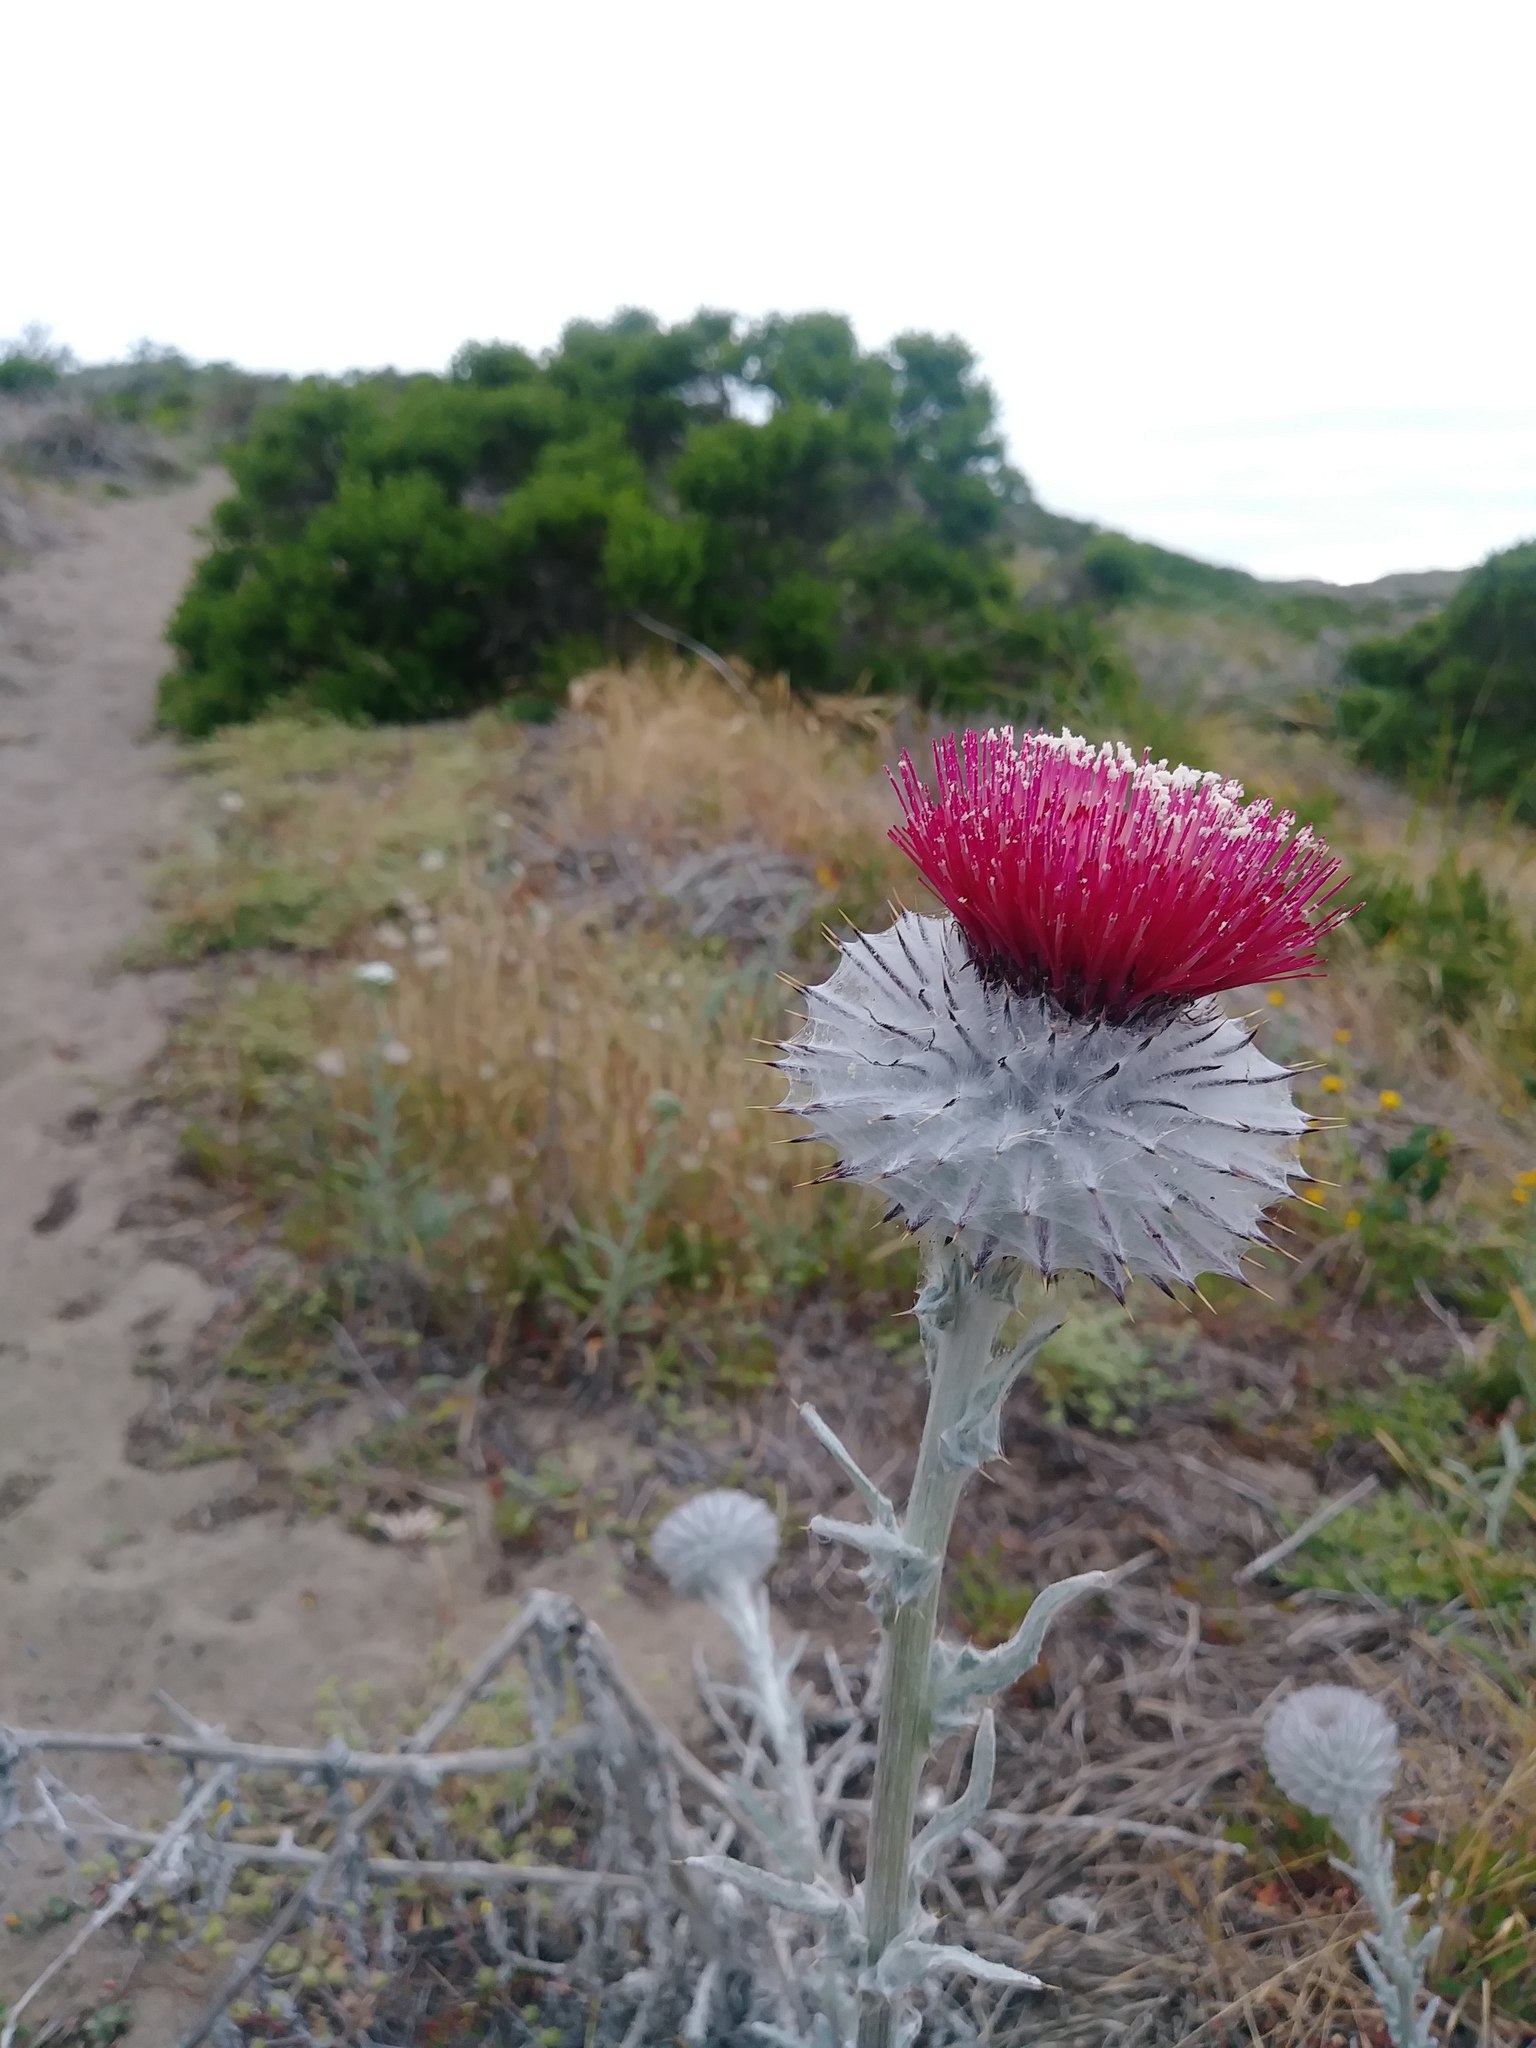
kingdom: Plantae
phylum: Tracheophyta
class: Magnoliopsida
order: Asterales
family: Asteraceae
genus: Cirsium
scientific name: Cirsium occidentale
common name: Western thistle
